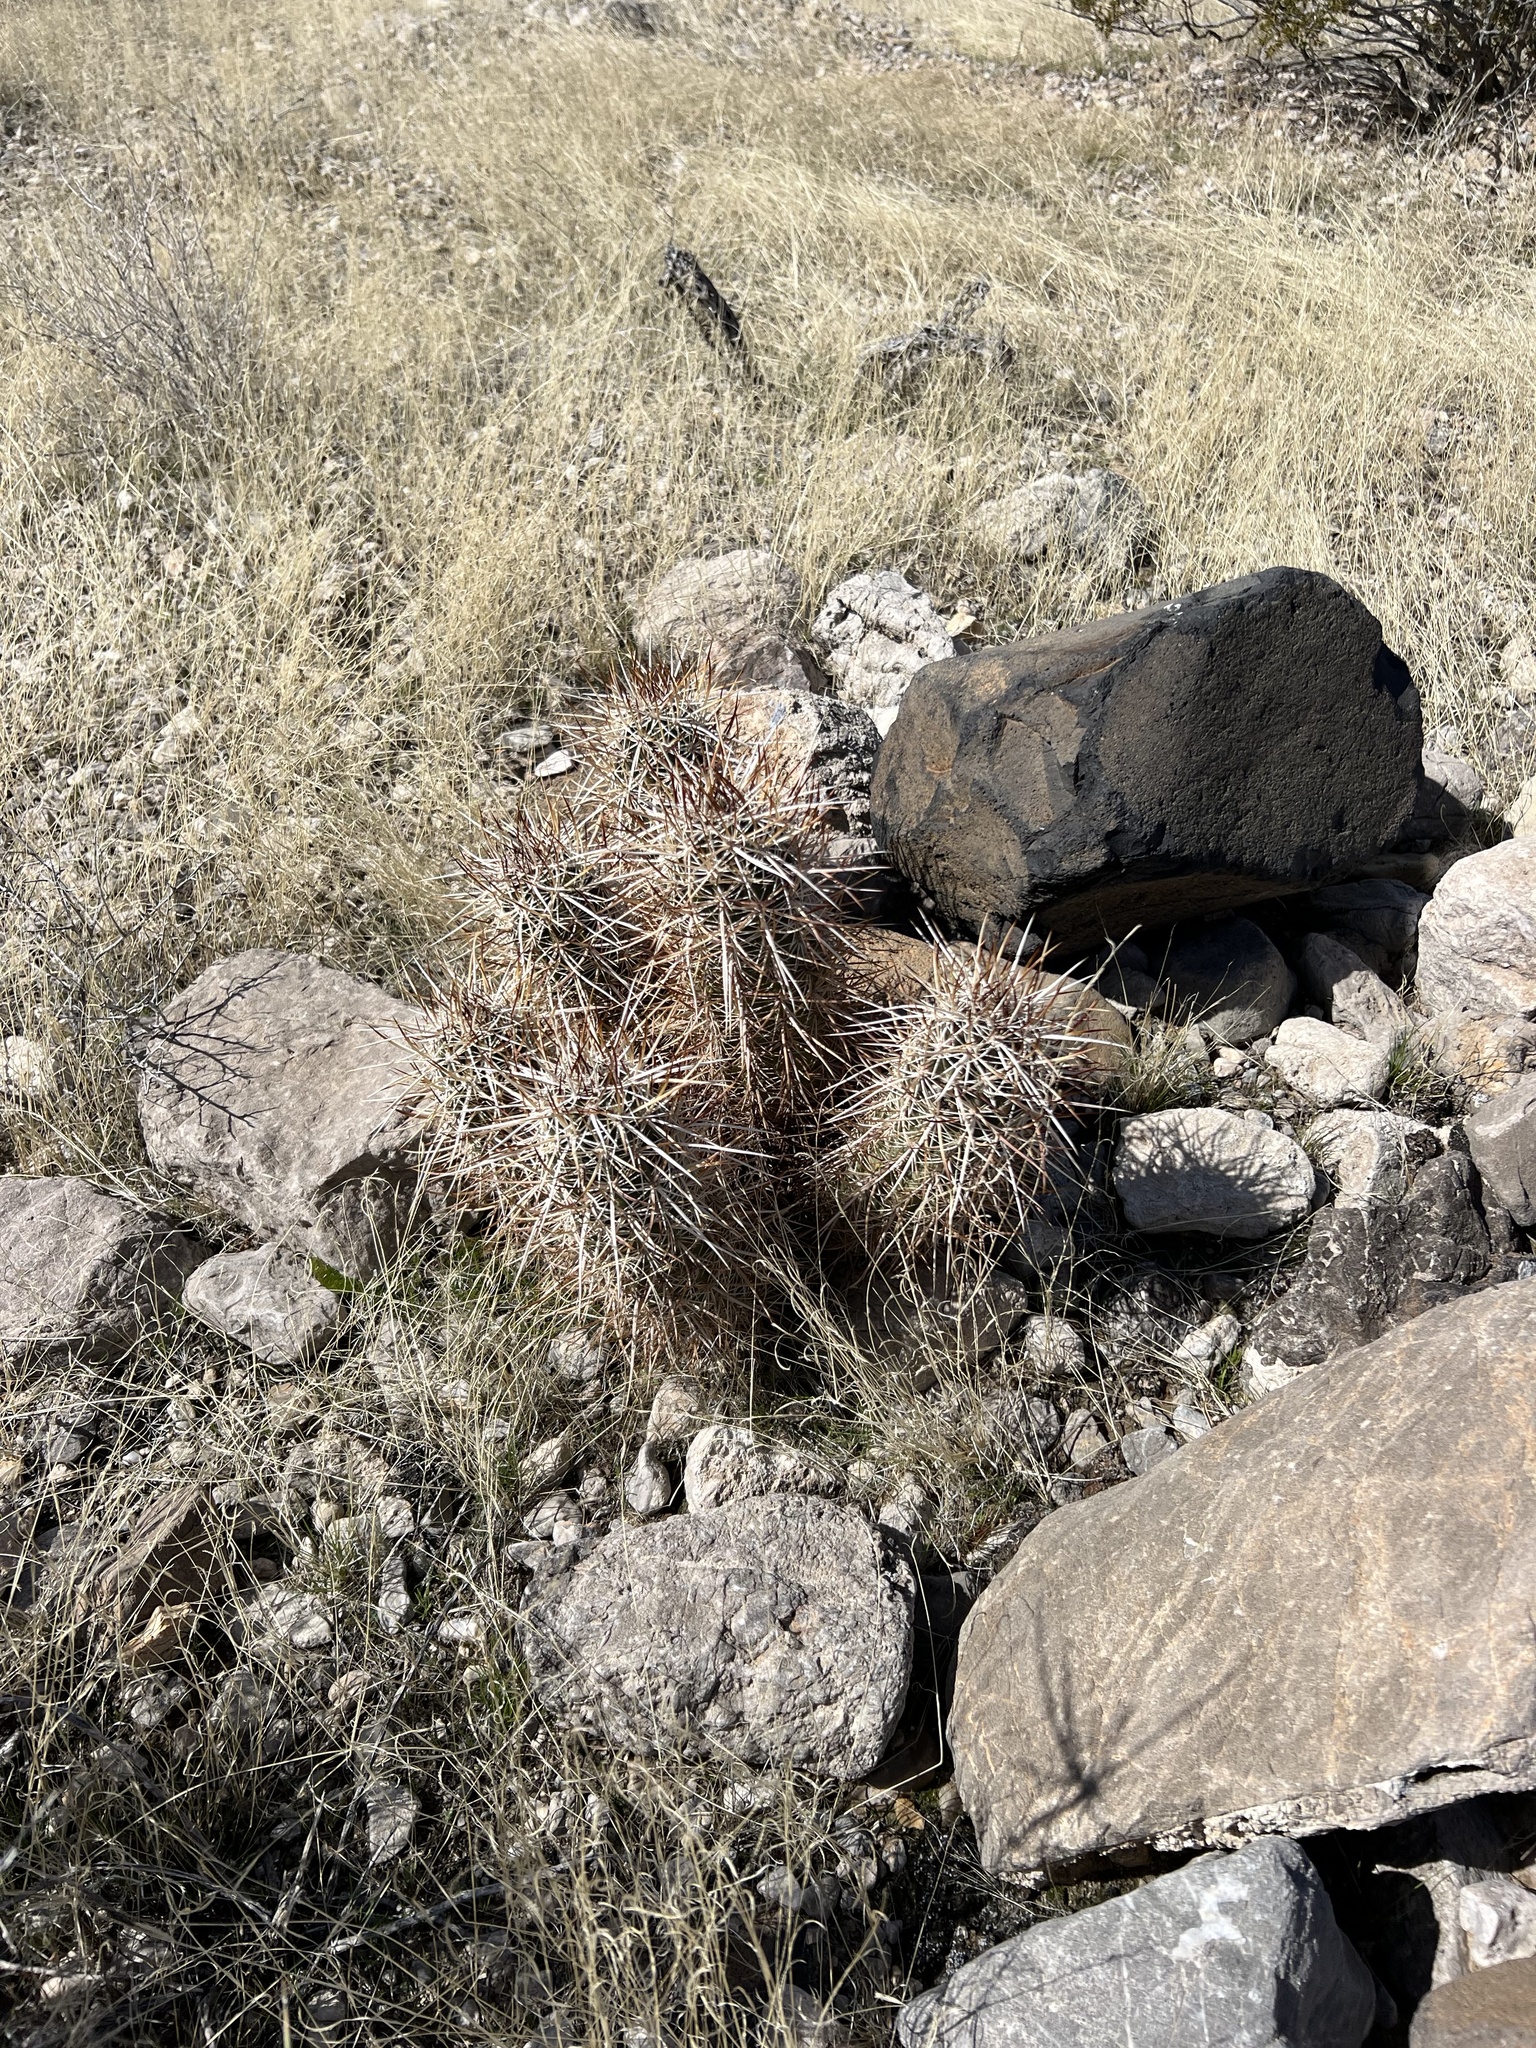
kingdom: Plantae
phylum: Tracheophyta
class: Magnoliopsida
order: Caryophyllales
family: Cactaceae
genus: Echinocereus
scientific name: Echinocereus engelmannii
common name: Engelmann's hedgehog cactus
